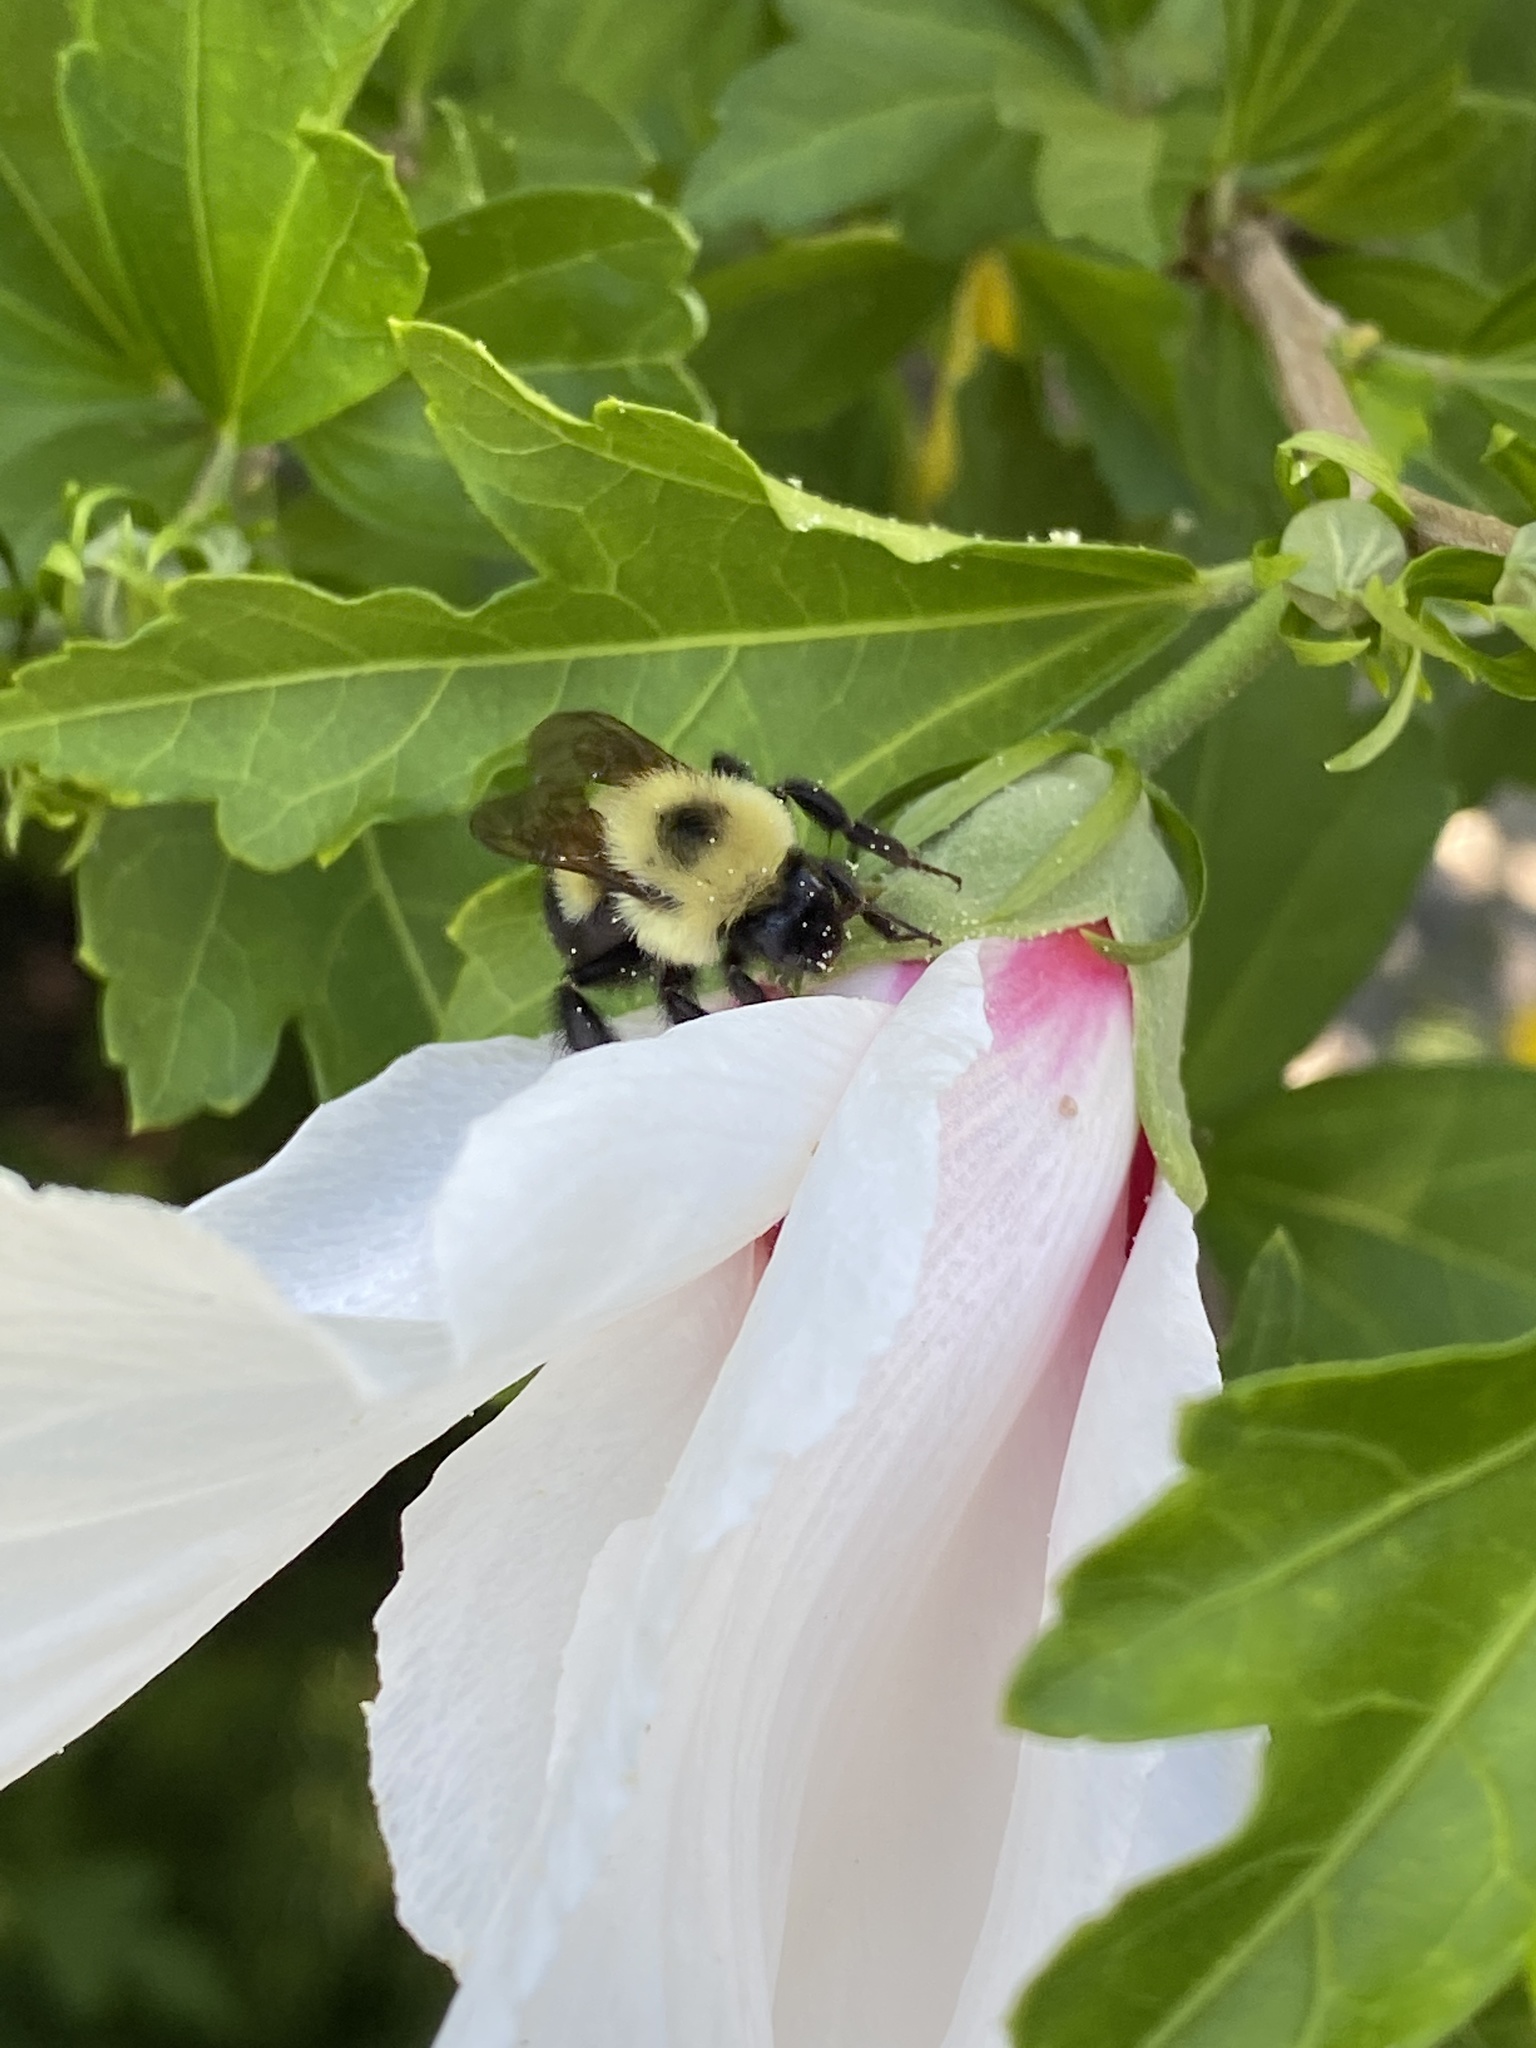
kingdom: Animalia
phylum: Arthropoda
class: Insecta
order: Hymenoptera
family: Apidae
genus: Bombus
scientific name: Bombus bimaculatus
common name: Two-spotted bumble bee
